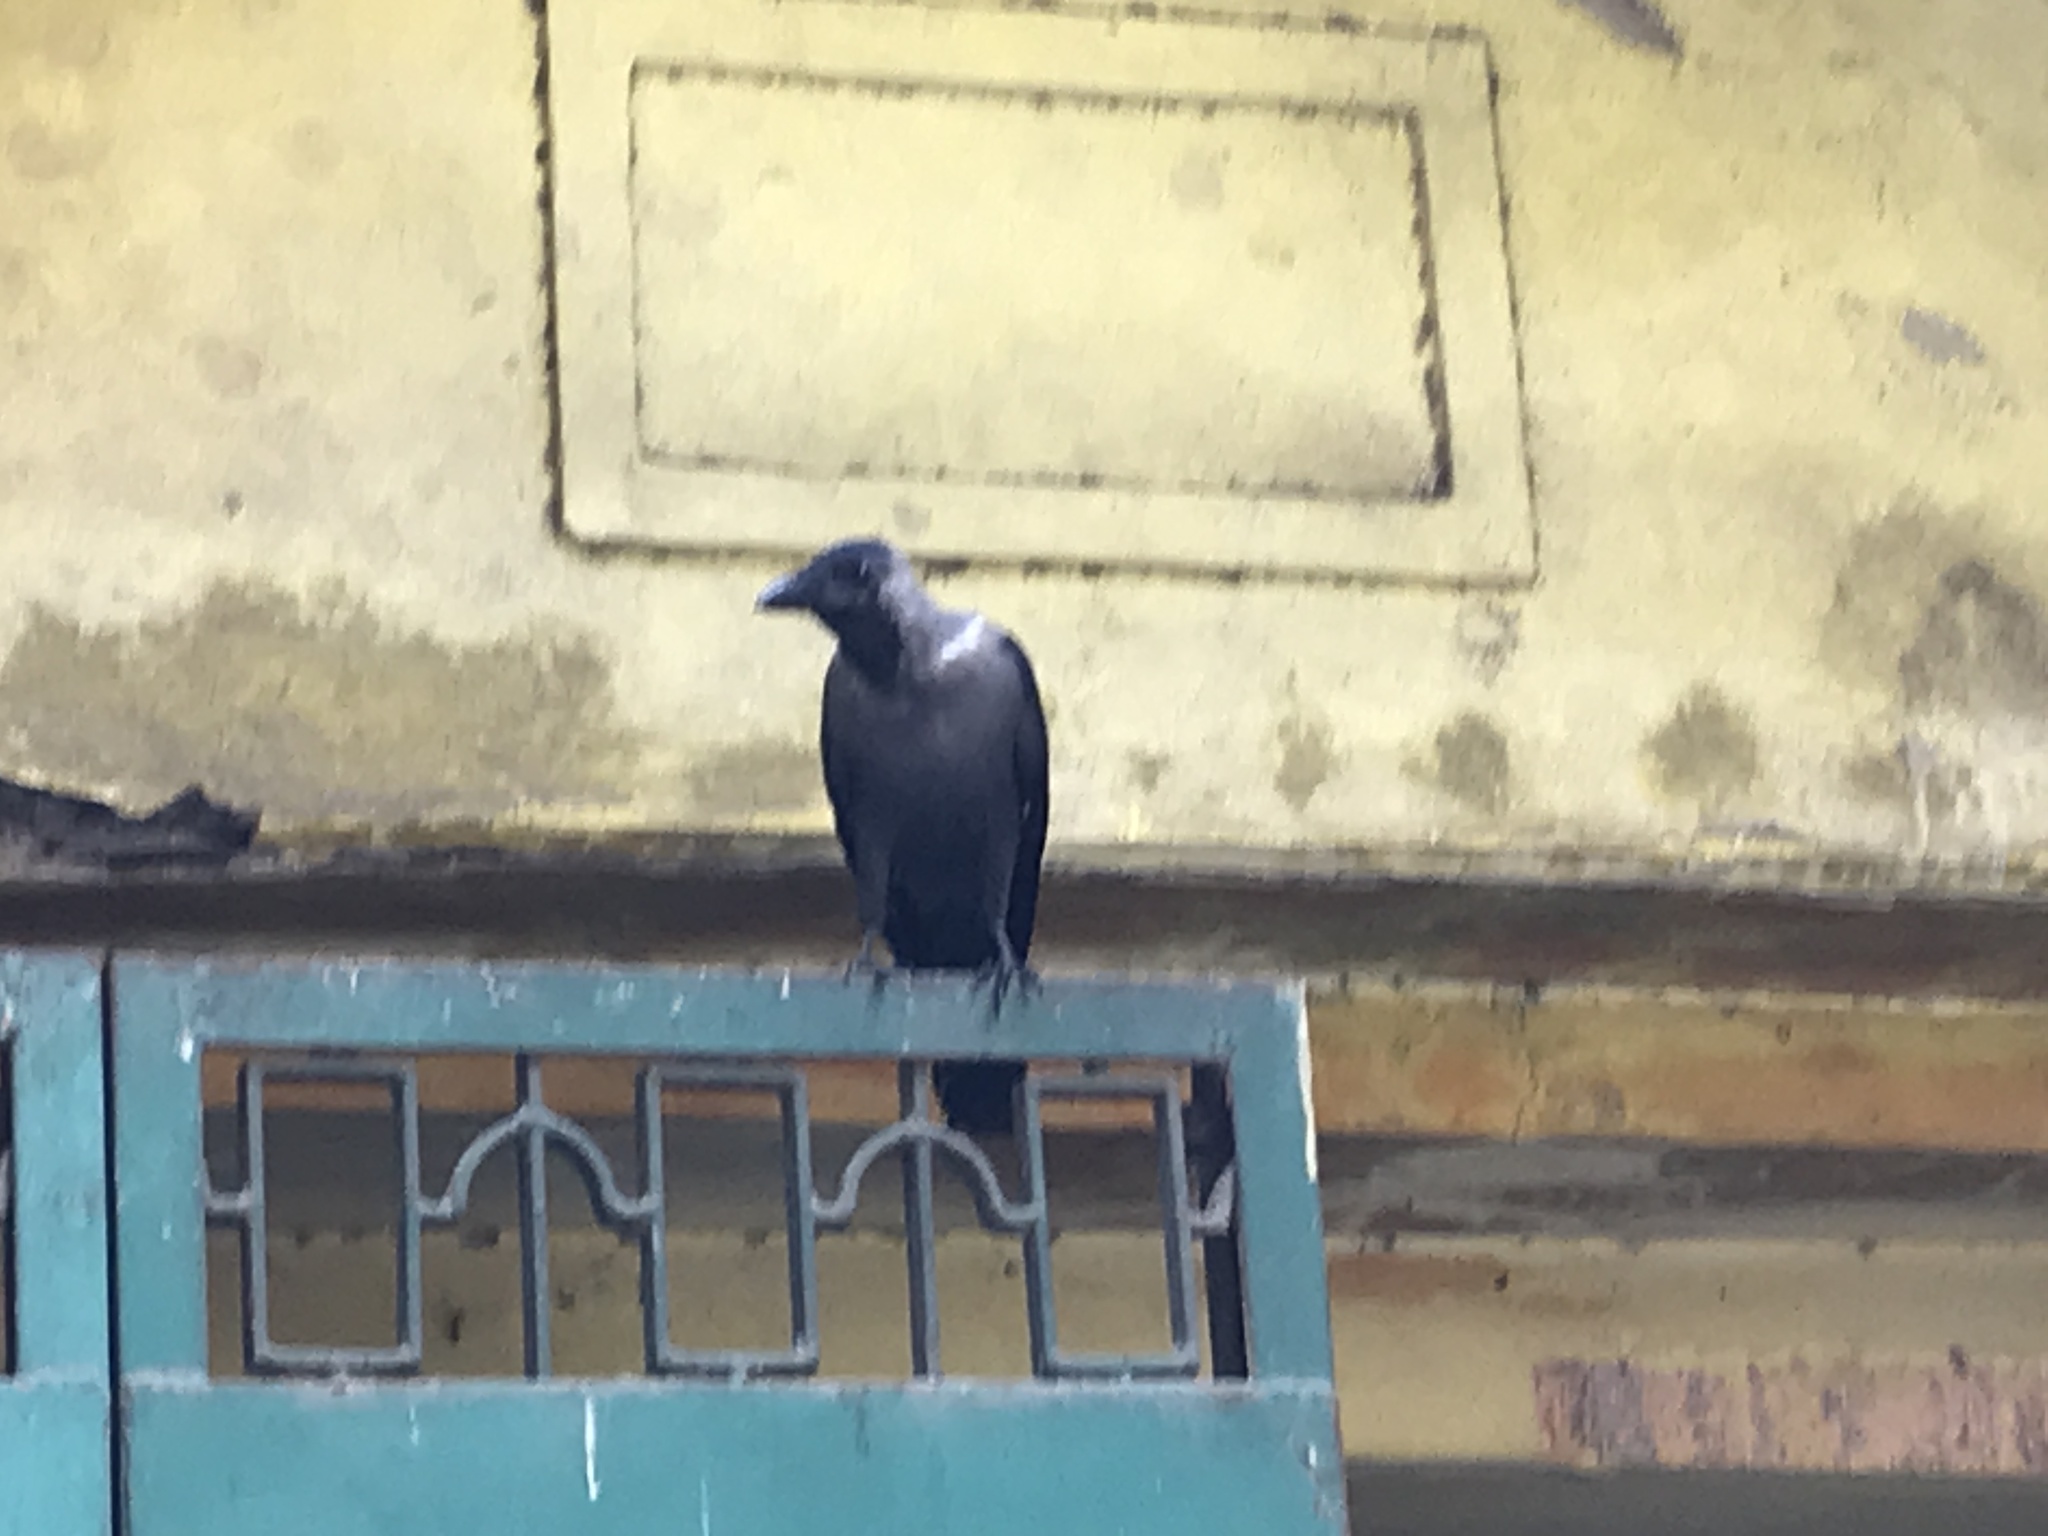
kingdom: Animalia
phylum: Chordata
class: Aves
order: Passeriformes
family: Corvidae
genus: Corvus
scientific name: Corvus splendens
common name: House crow
